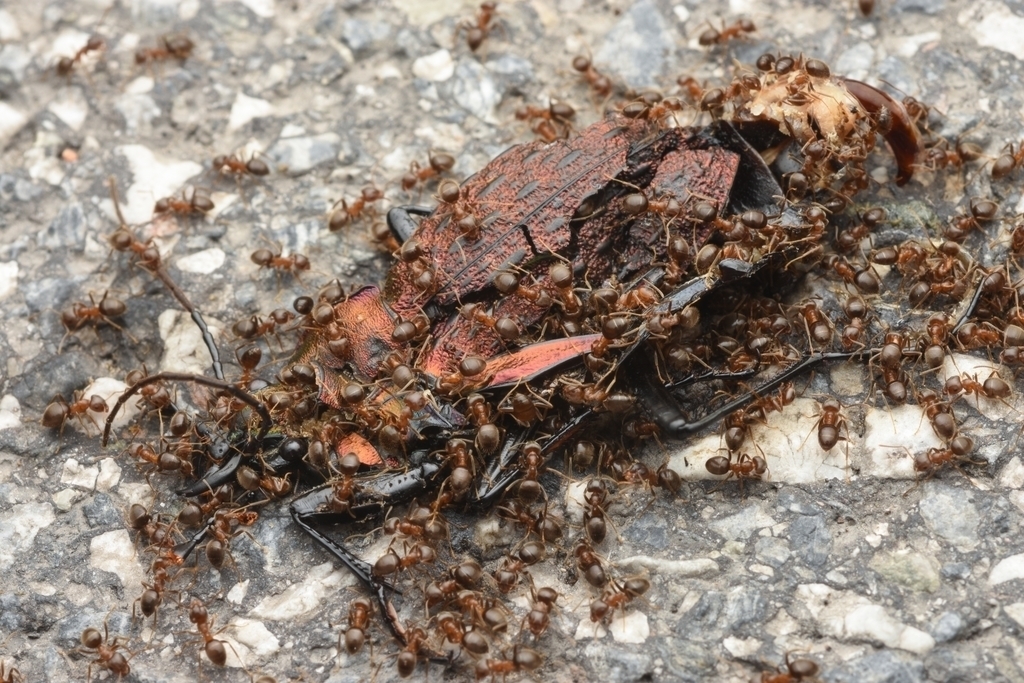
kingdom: Animalia
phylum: Arthropoda
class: Insecta
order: Coleoptera
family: Carabidae
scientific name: Carabidae
